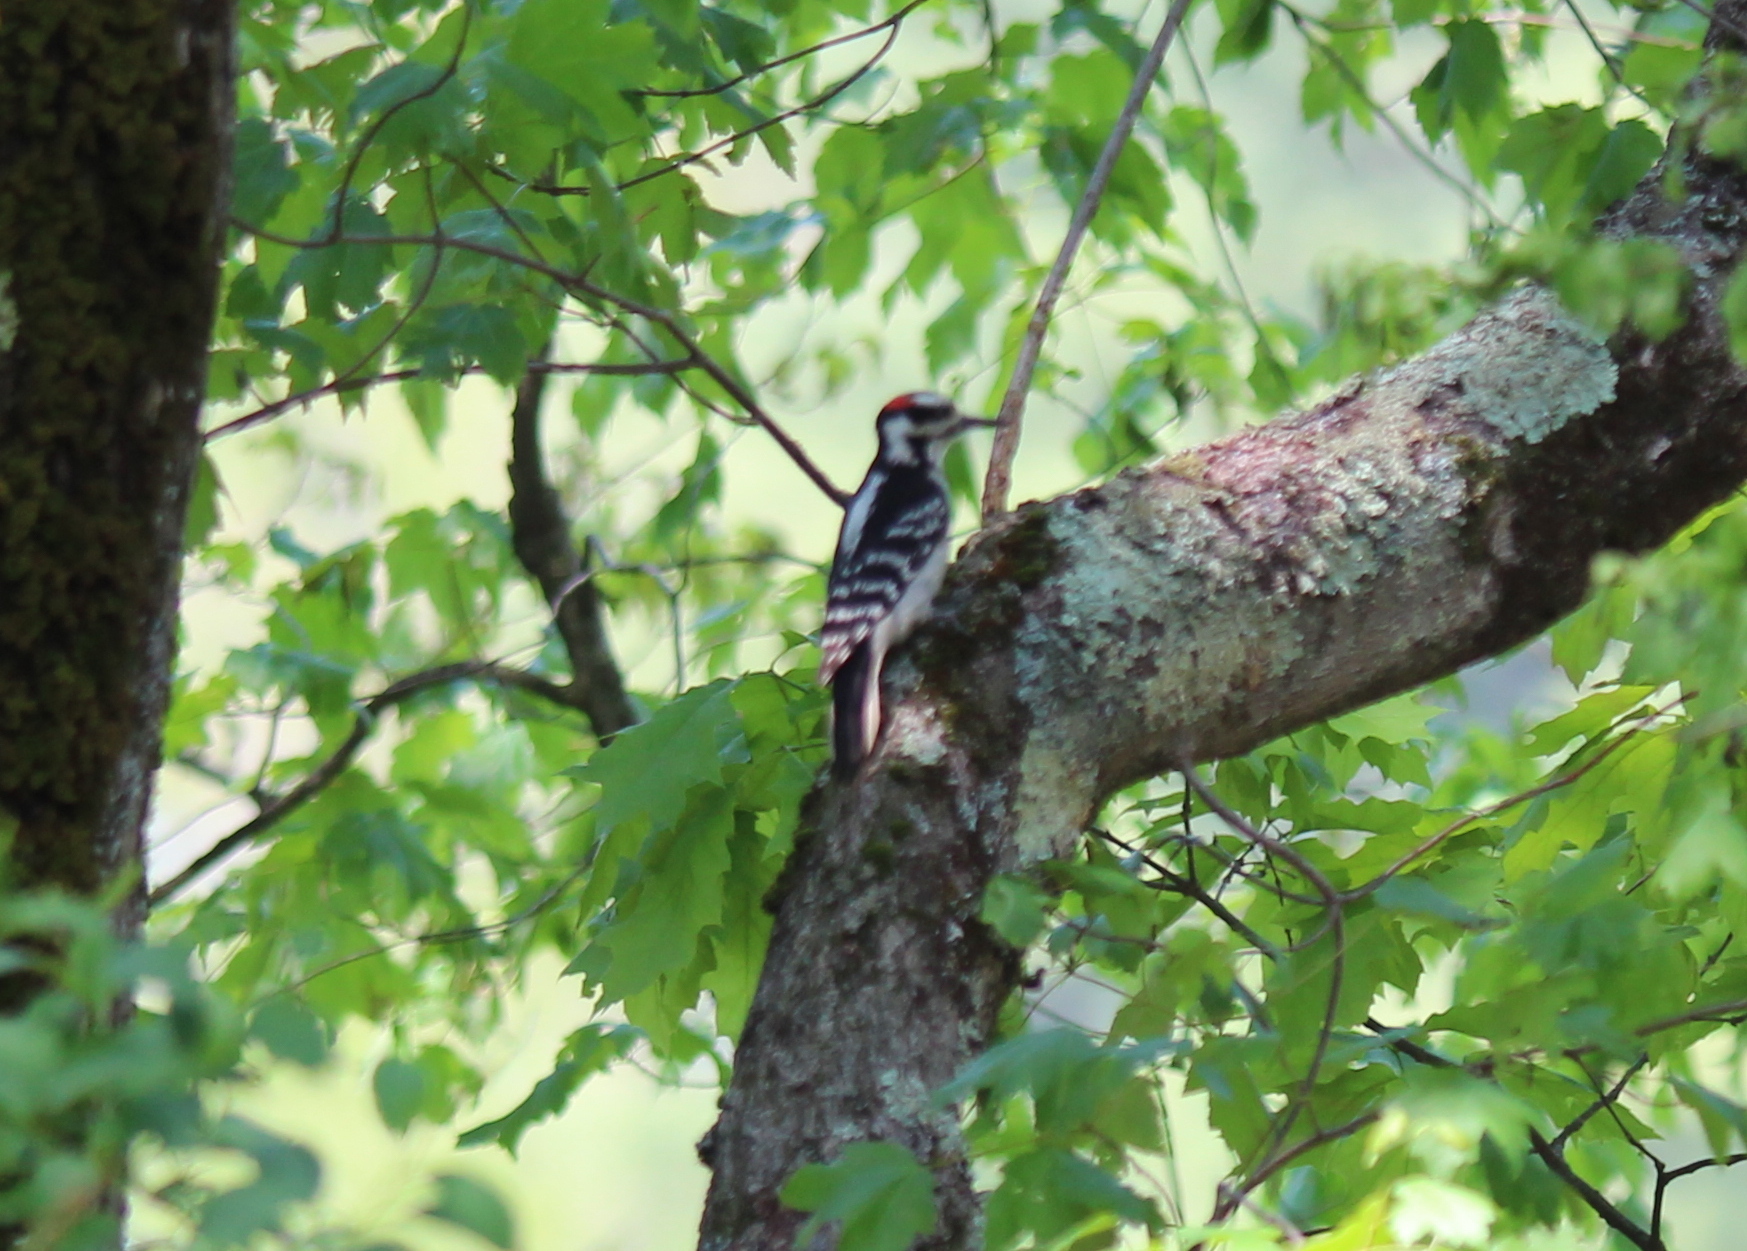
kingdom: Animalia
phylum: Chordata
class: Aves
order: Piciformes
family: Picidae
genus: Leuconotopicus
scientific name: Leuconotopicus villosus
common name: Hairy woodpecker
